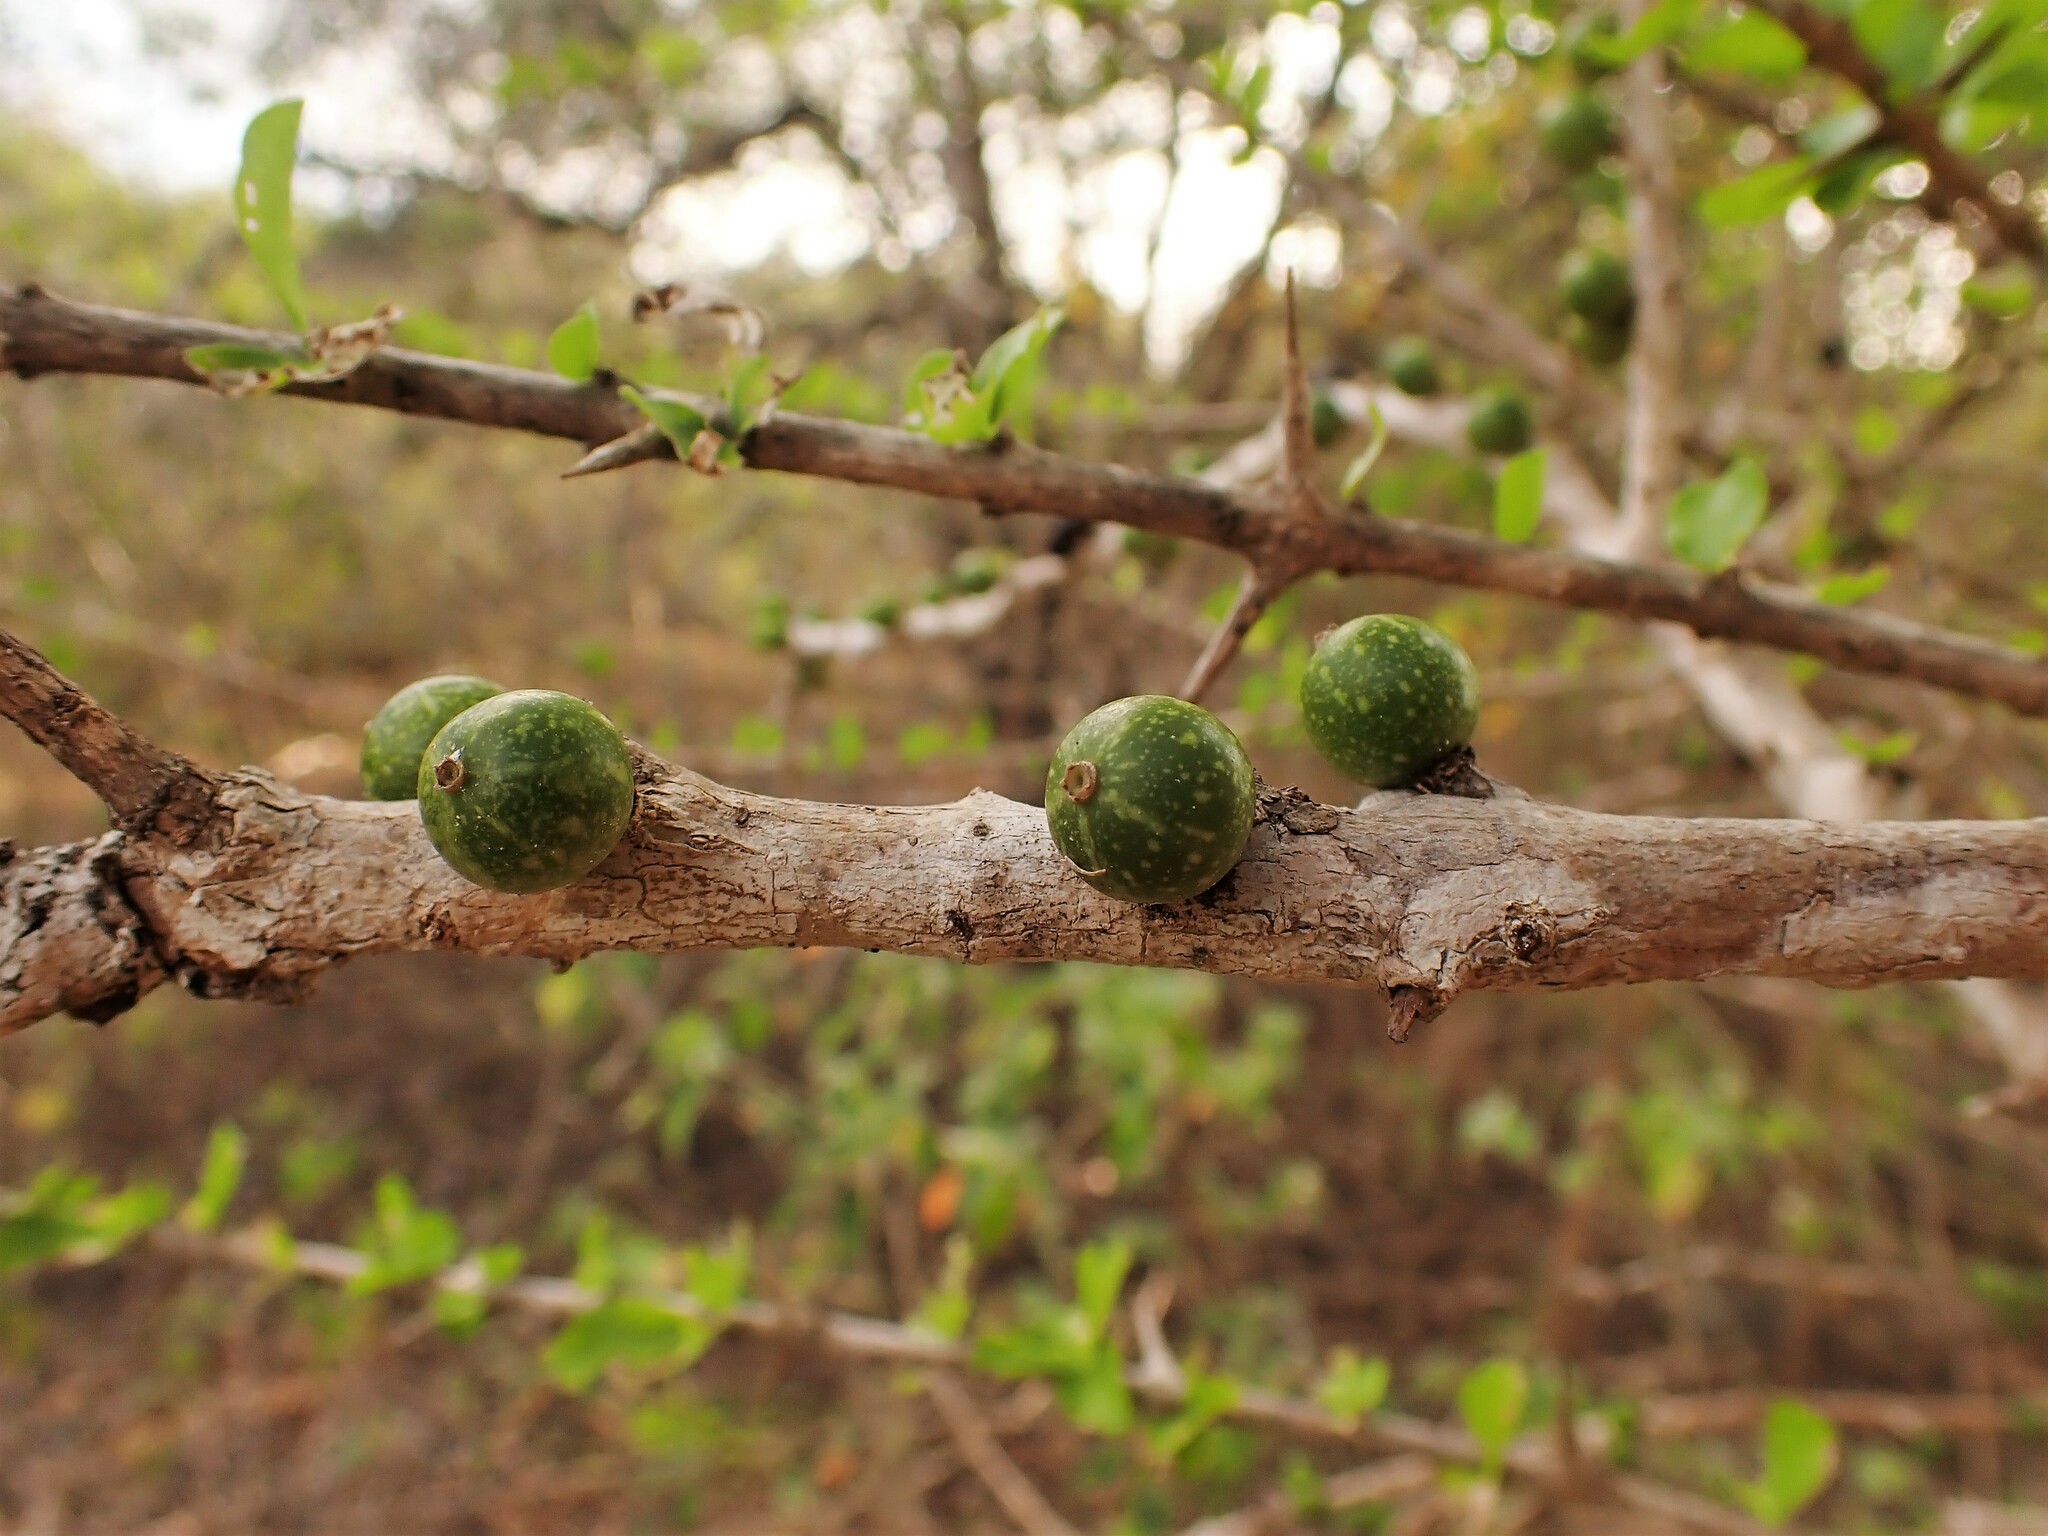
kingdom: Plantae
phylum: Tracheophyta
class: Magnoliopsida
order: Gentianales
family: Rubiaceae
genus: Randia
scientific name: Randia aculeata
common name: Inkberry
